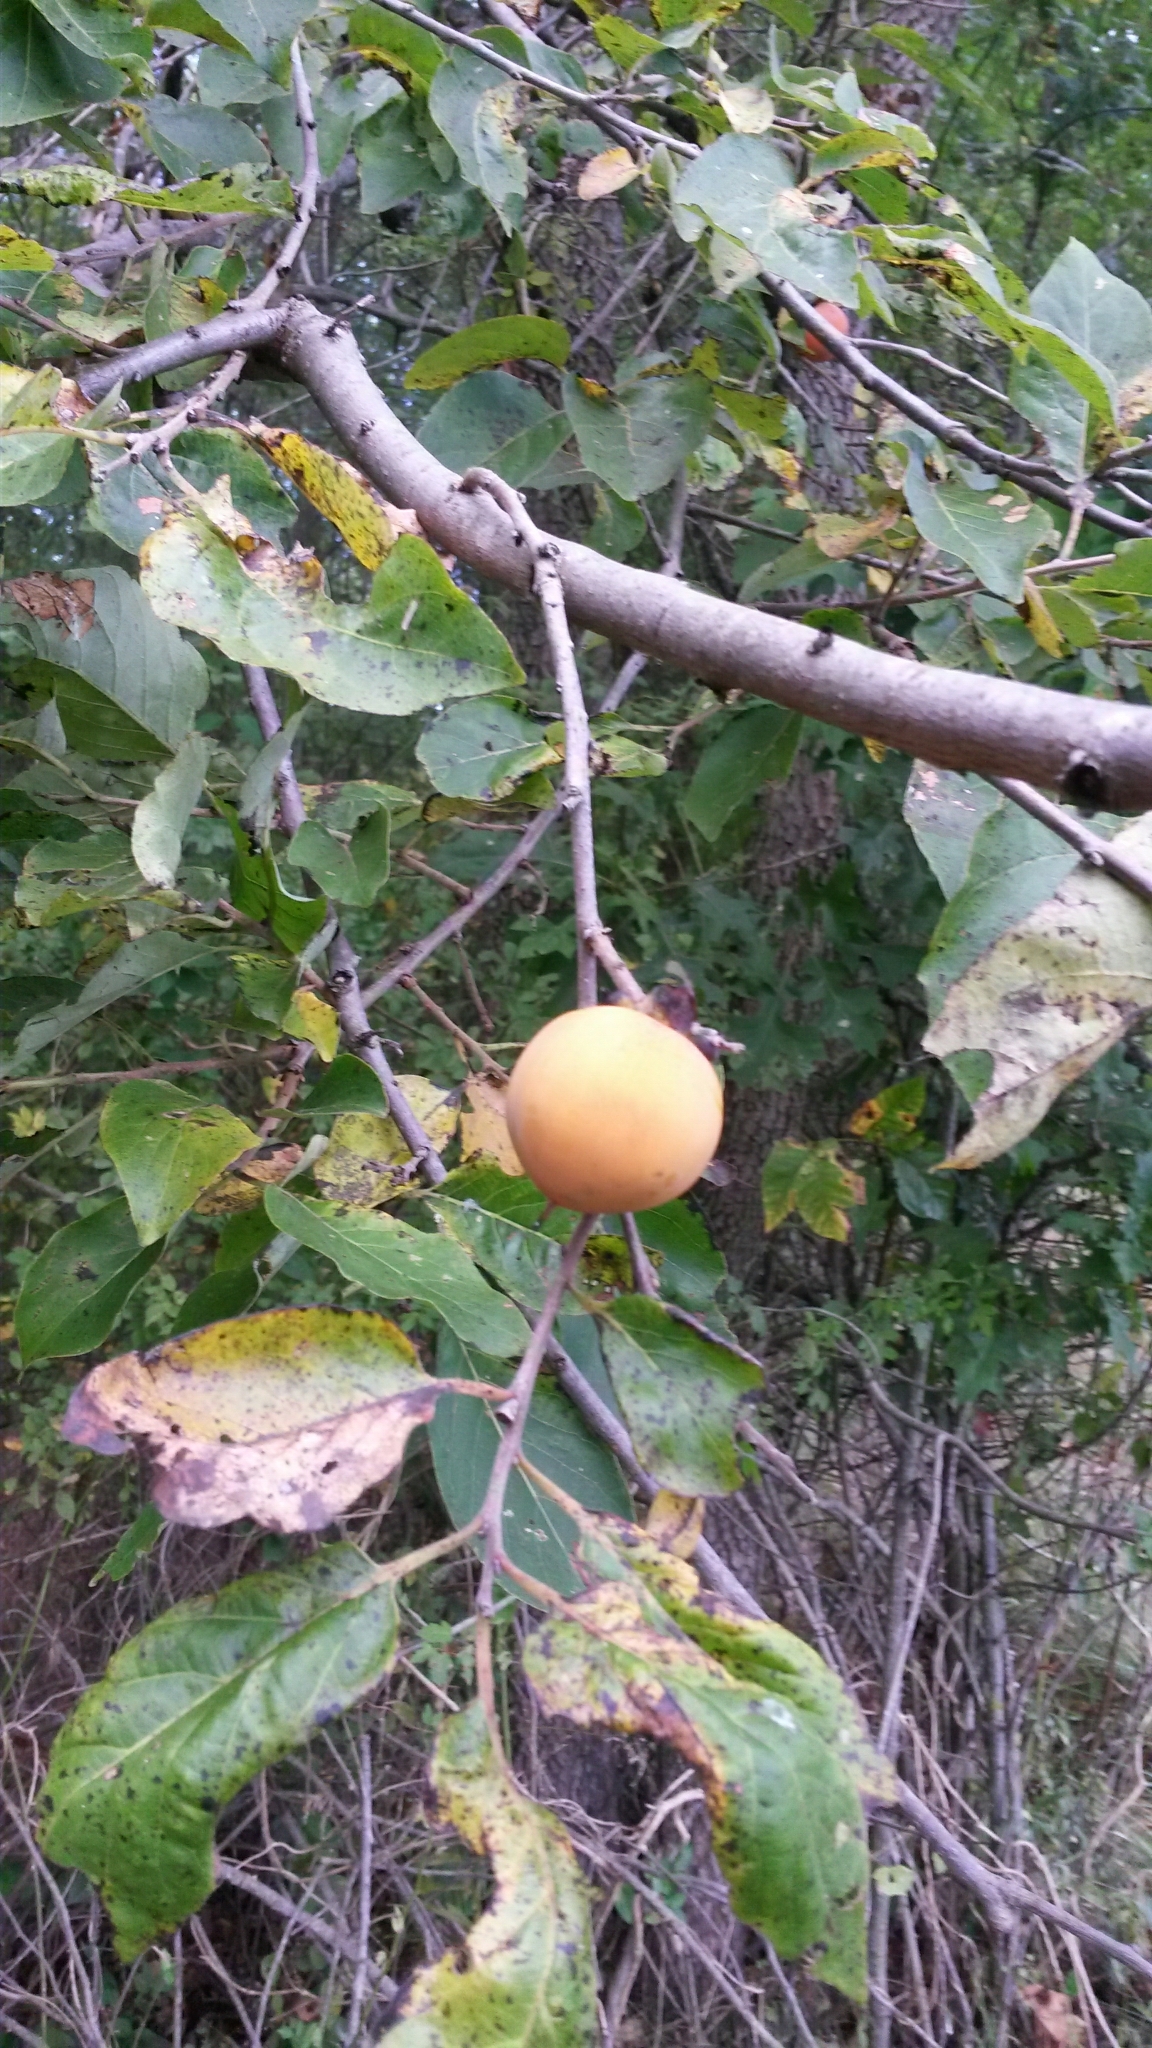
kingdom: Plantae
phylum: Tracheophyta
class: Magnoliopsida
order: Ericales
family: Ebenaceae
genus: Diospyros
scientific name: Diospyros virginiana
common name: Persimmon
